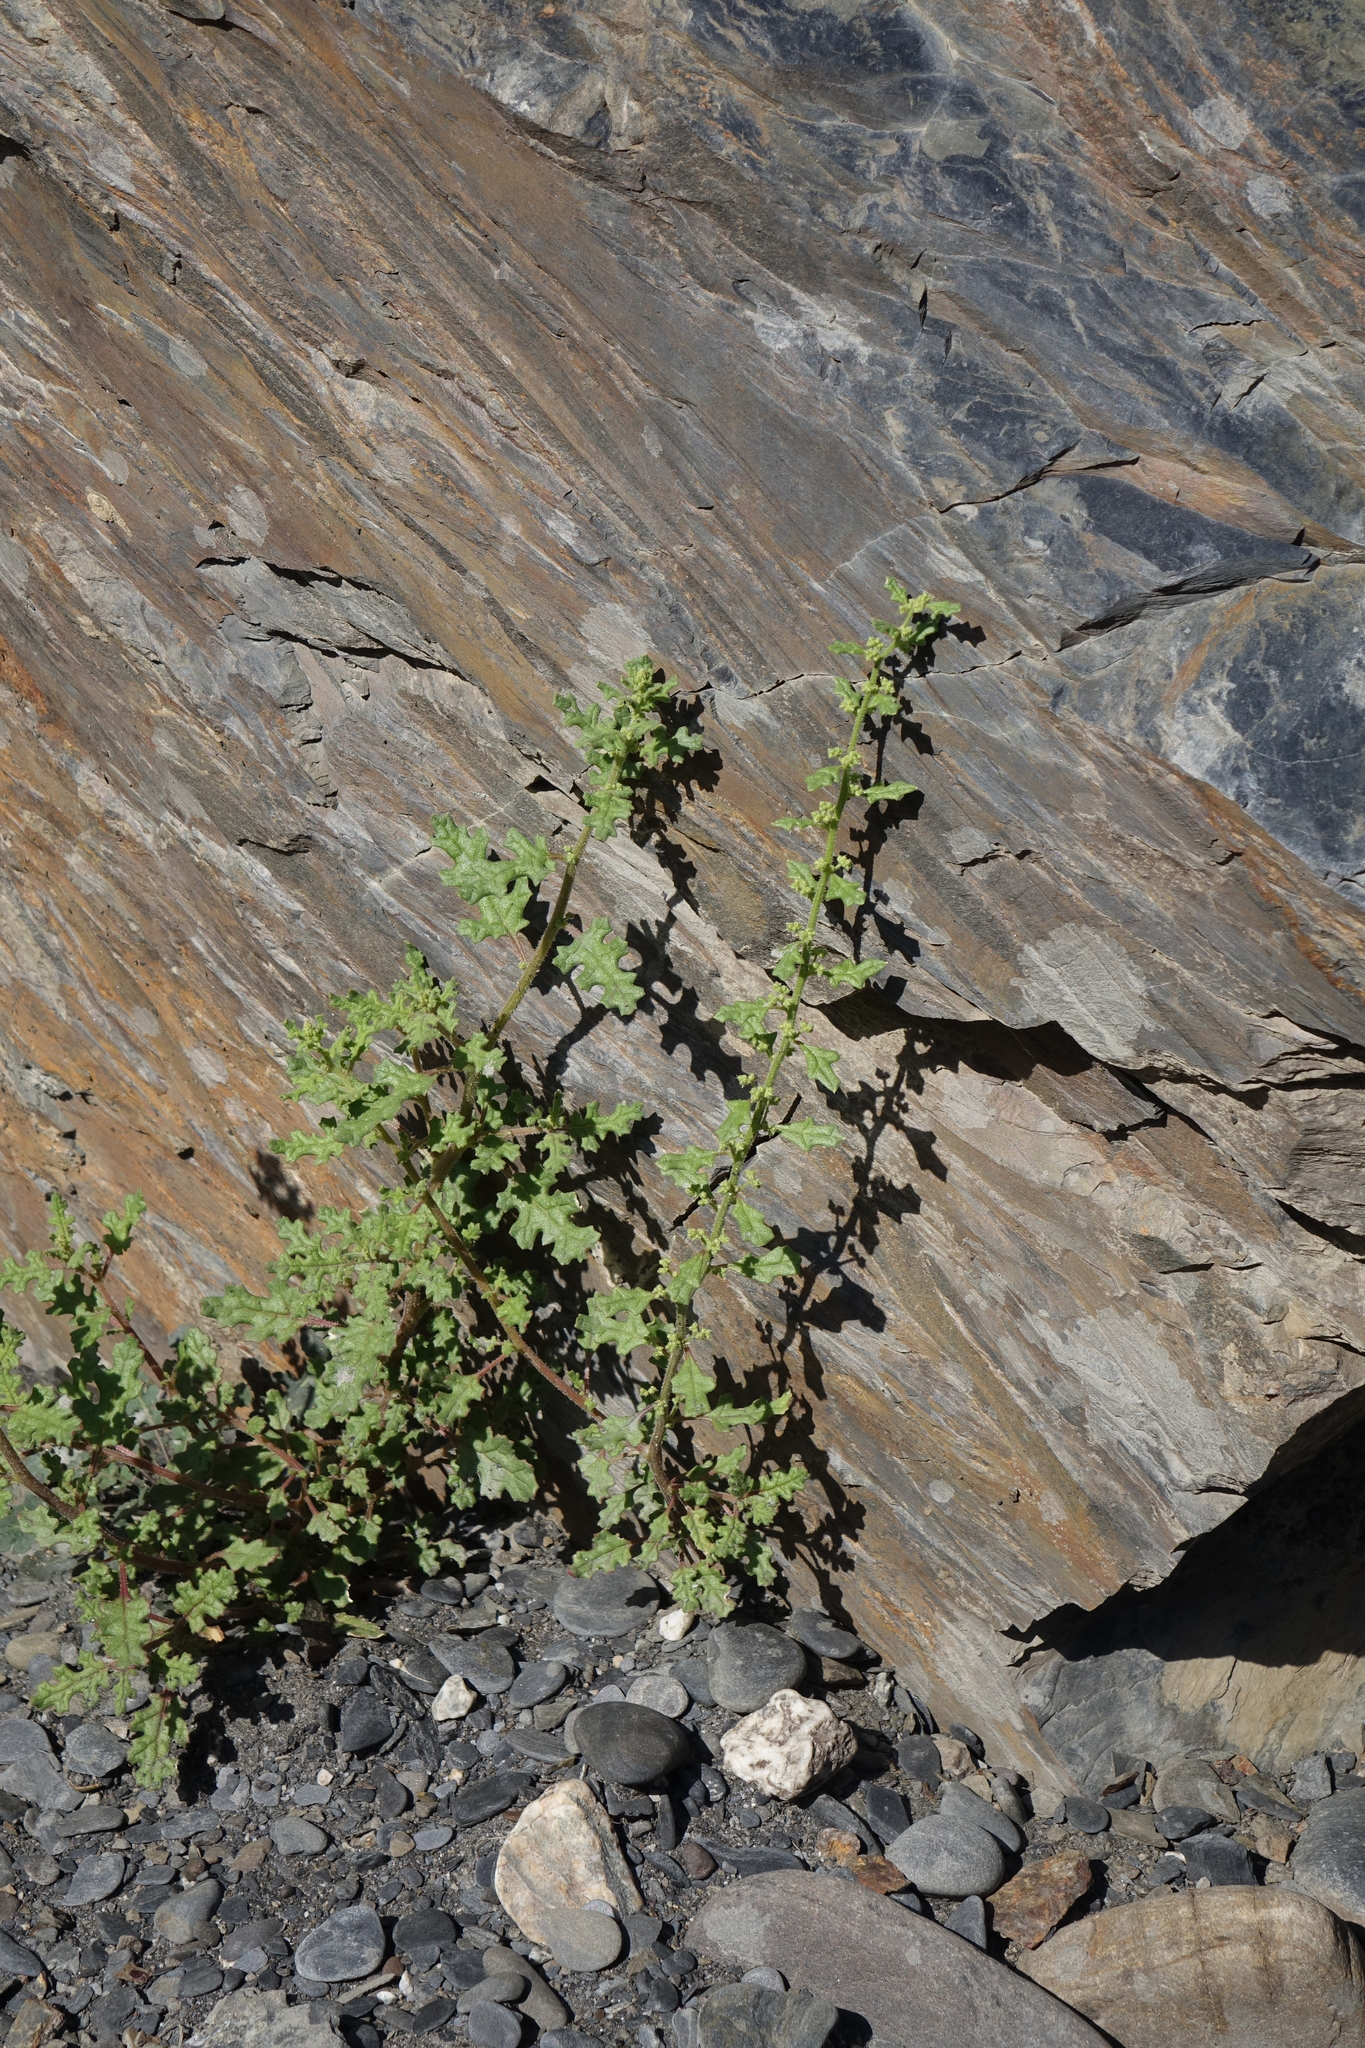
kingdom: Plantae
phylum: Tracheophyta
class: Magnoliopsida
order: Caryophyllales
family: Amaranthaceae
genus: Dysphania
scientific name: Dysphania botrys
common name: Feather-geranium
